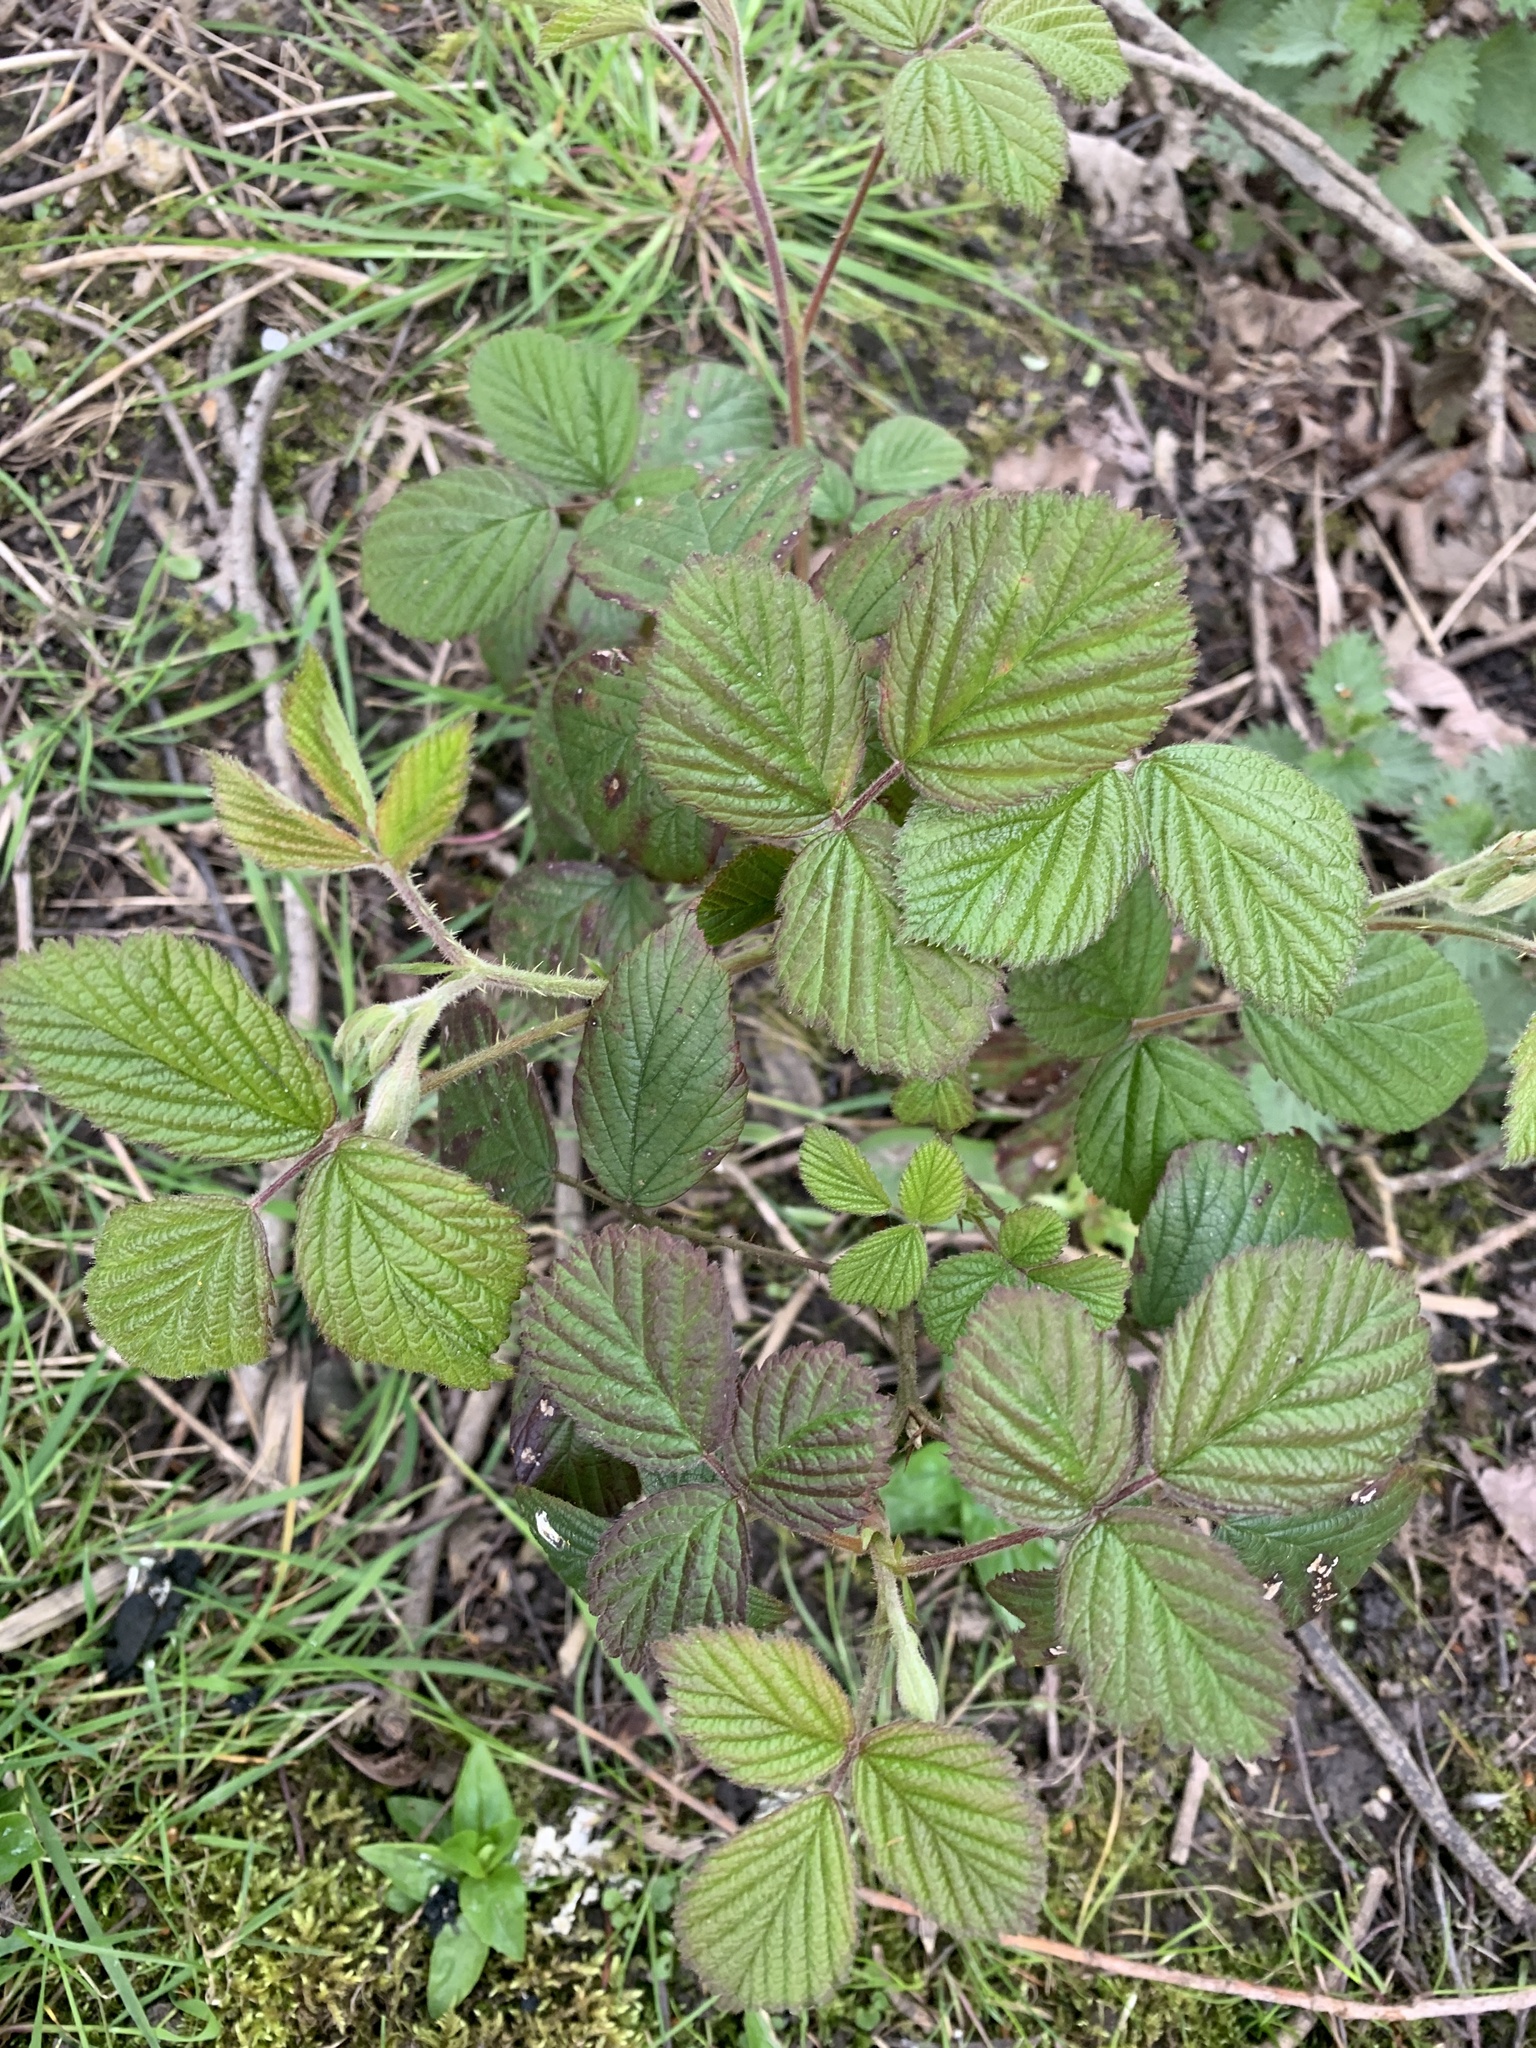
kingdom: Plantae
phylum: Tracheophyta
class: Magnoliopsida
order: Rosales
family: Rosaceae
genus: Rubus
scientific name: Rubus fruticosus
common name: Blackberry, bramble
